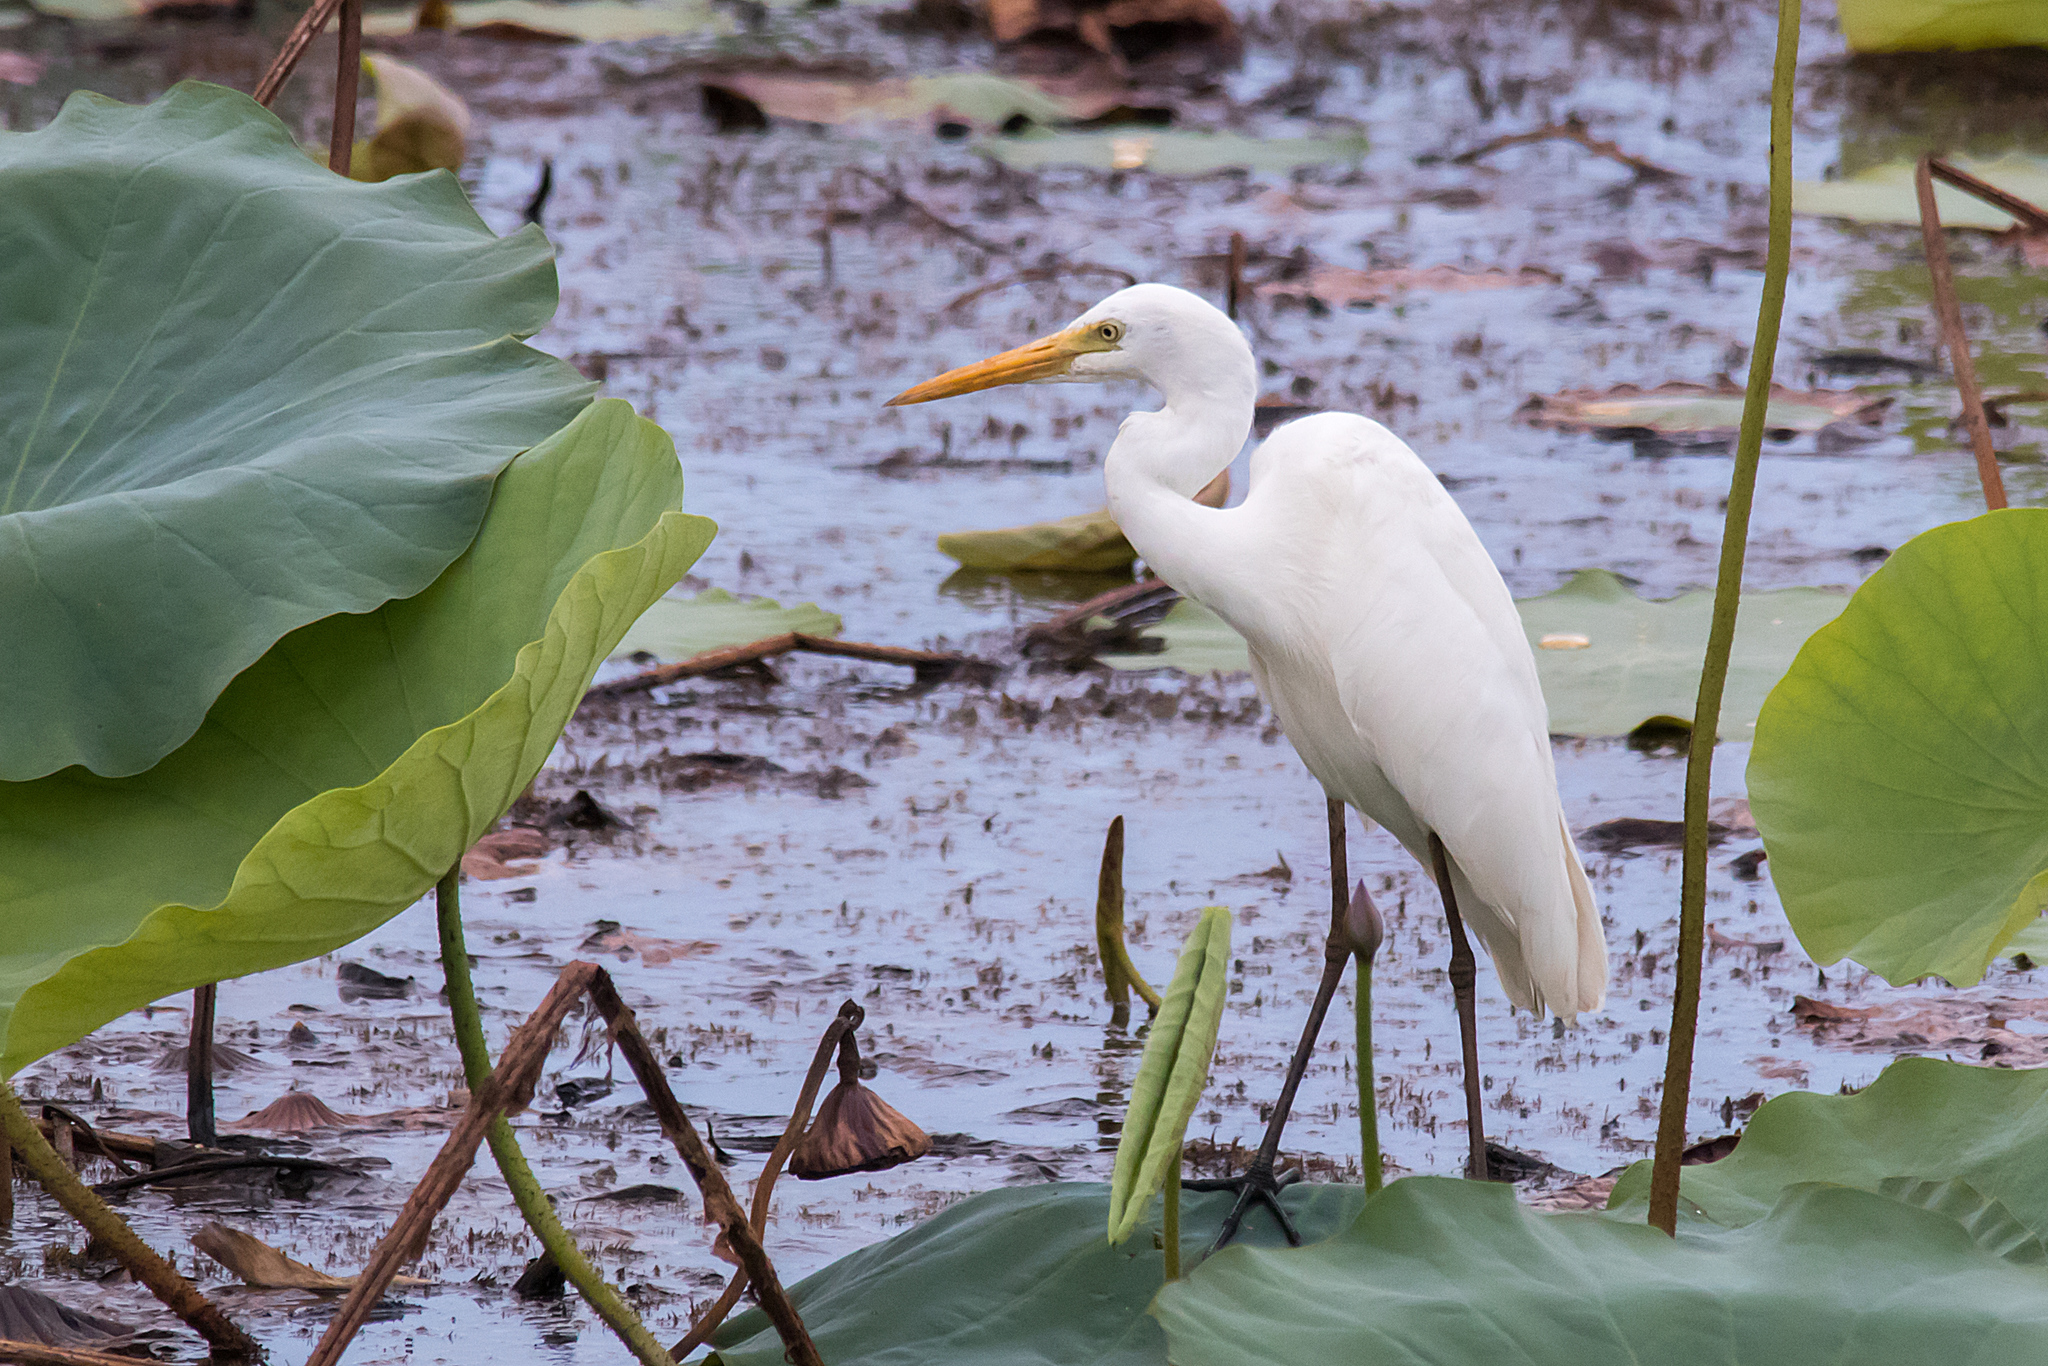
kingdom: Animalia
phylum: Chordata
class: Aves
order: Pelecaniformes
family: Ardeidae
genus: Egretta
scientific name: Egretta intermedia
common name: Intermediate egret
